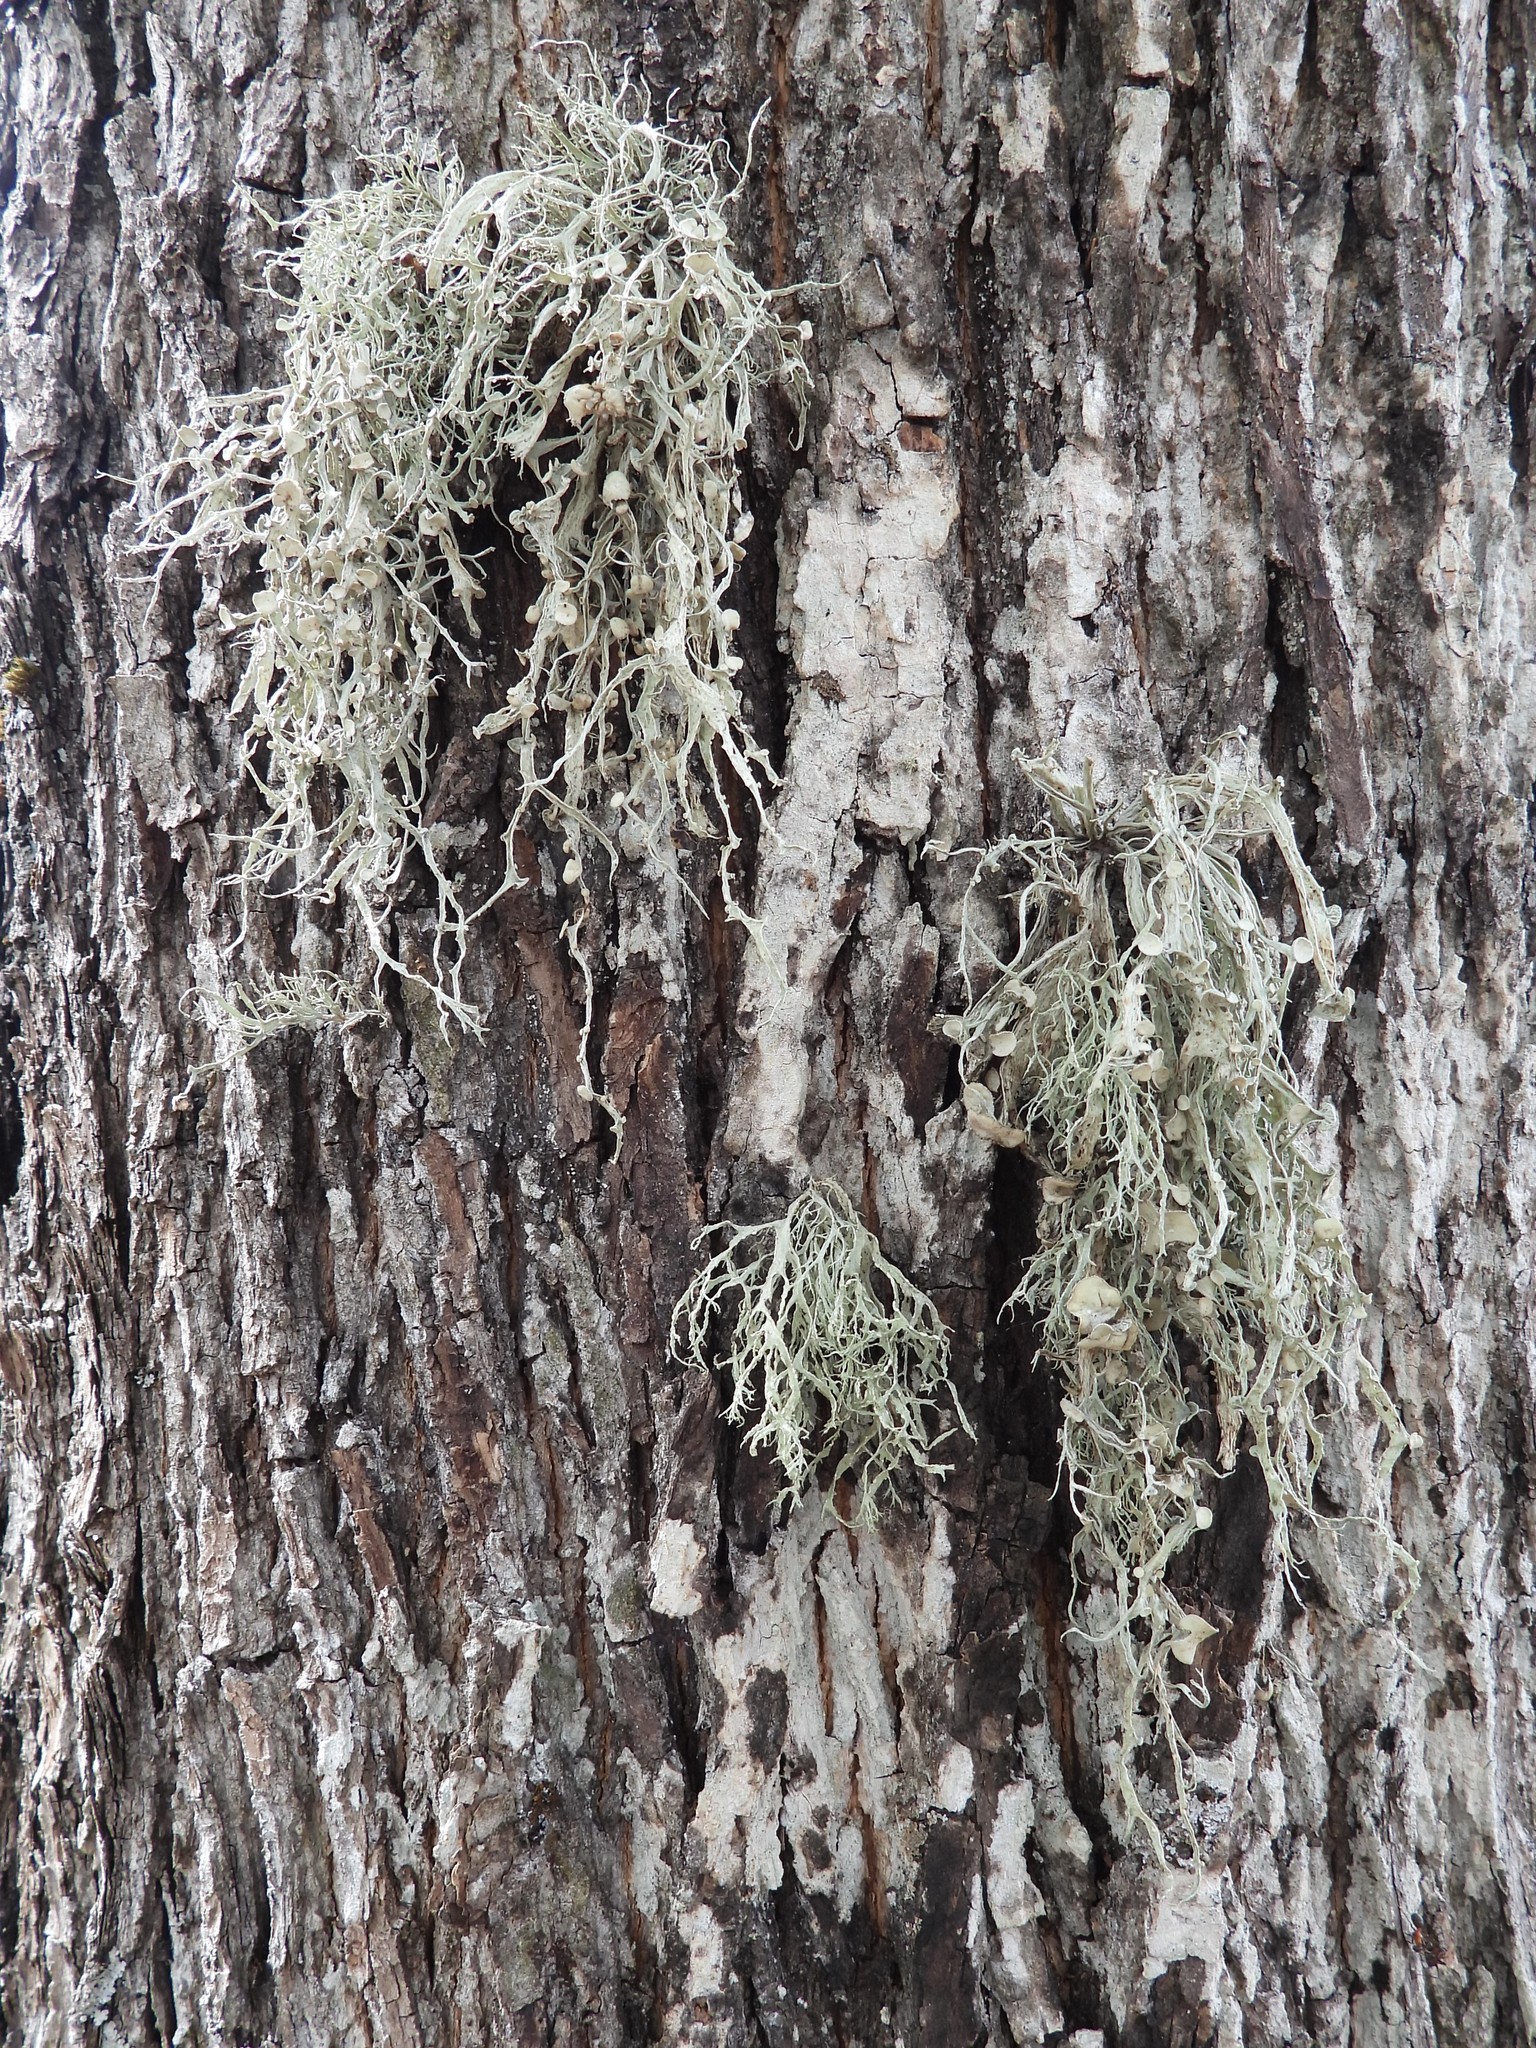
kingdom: Fungi
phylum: Ascomycota
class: Lecanoromycetes
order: Lecanorales
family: Ramalinaceae
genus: Ramalina
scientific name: Ramalina fraxinea
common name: Cartilage lichen
